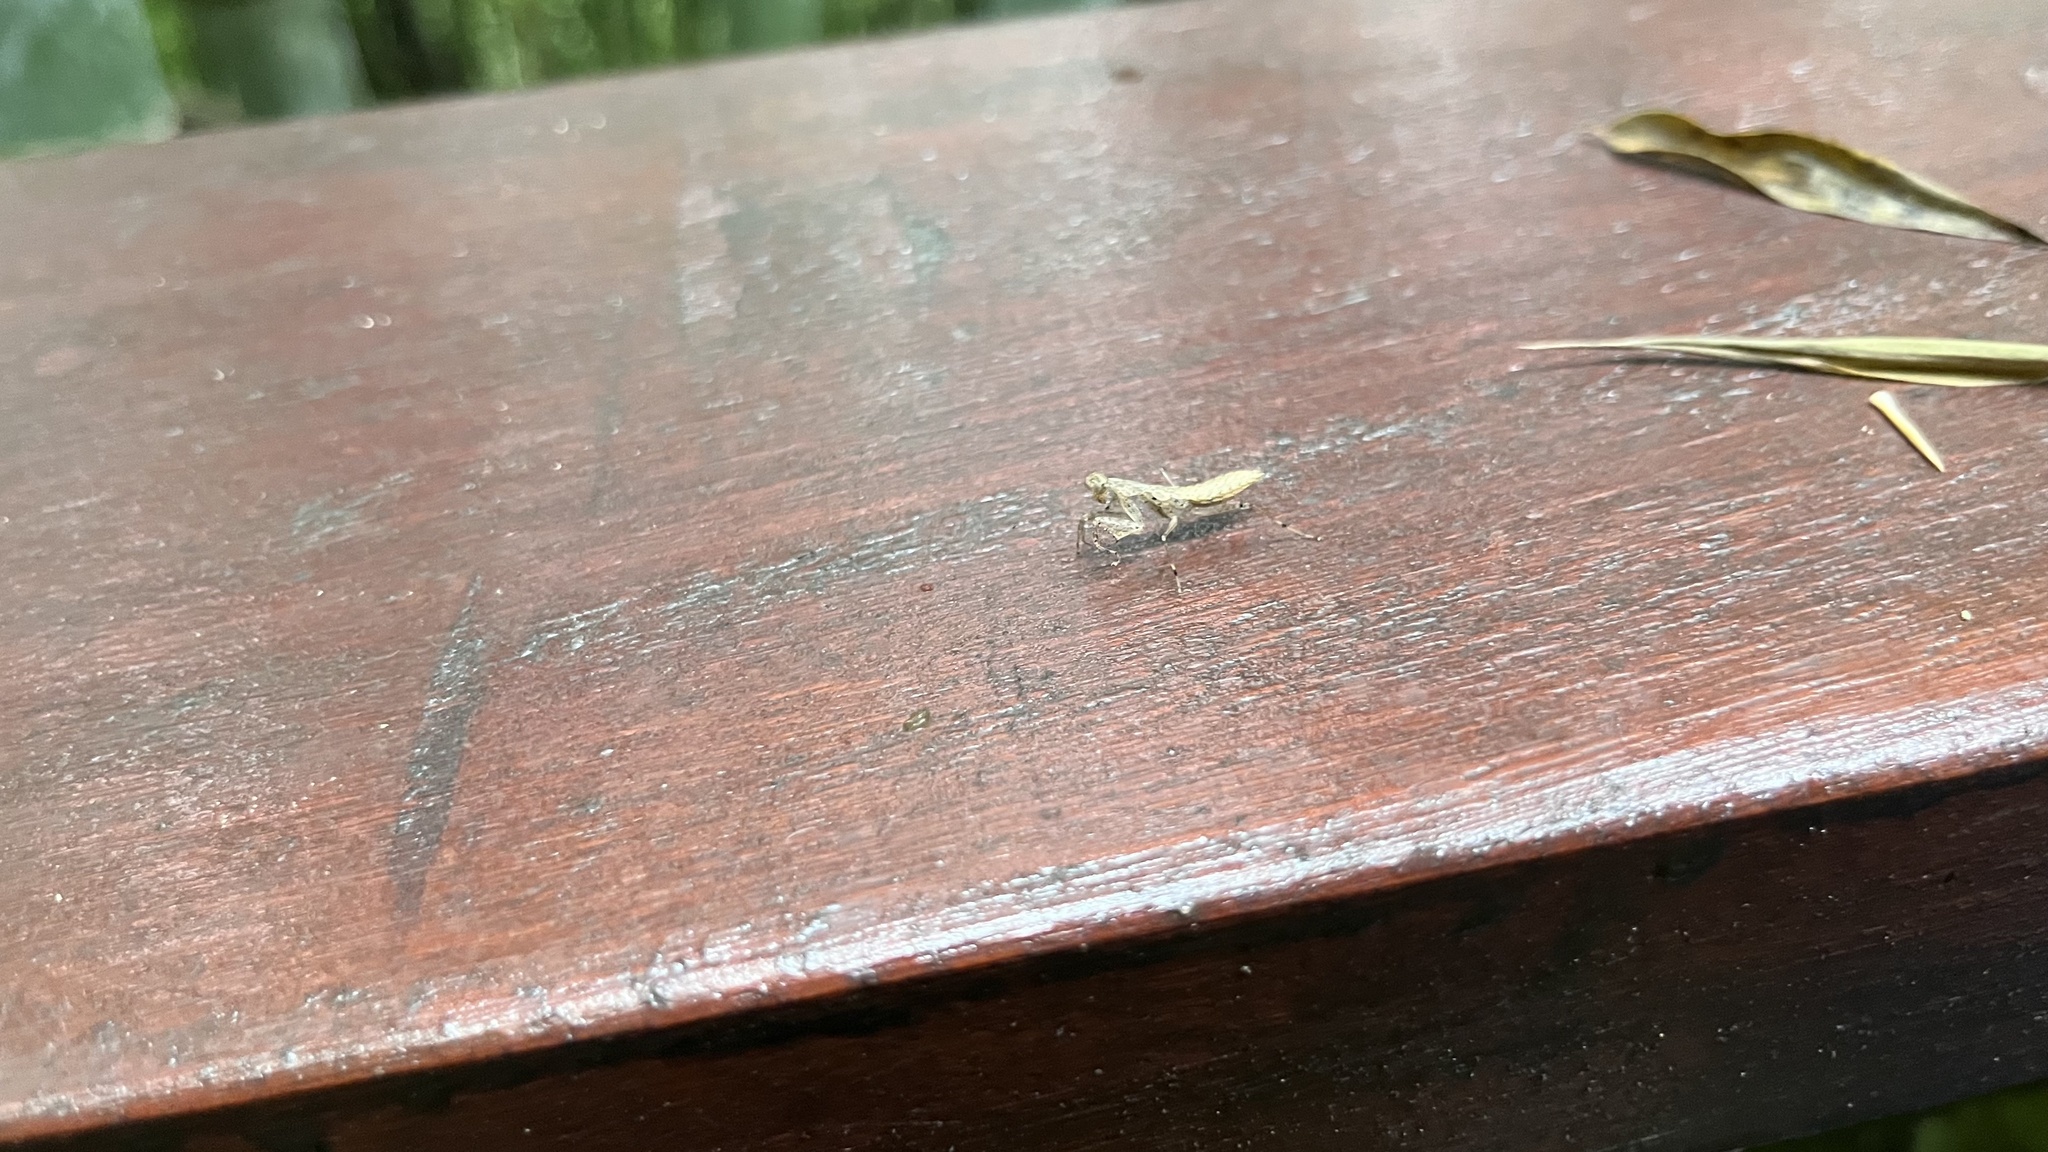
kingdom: Animalia
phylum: Arthropoda
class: Insecta
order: Mantodea
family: Gonypetidae
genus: Amantis
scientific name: Amantis nawai
